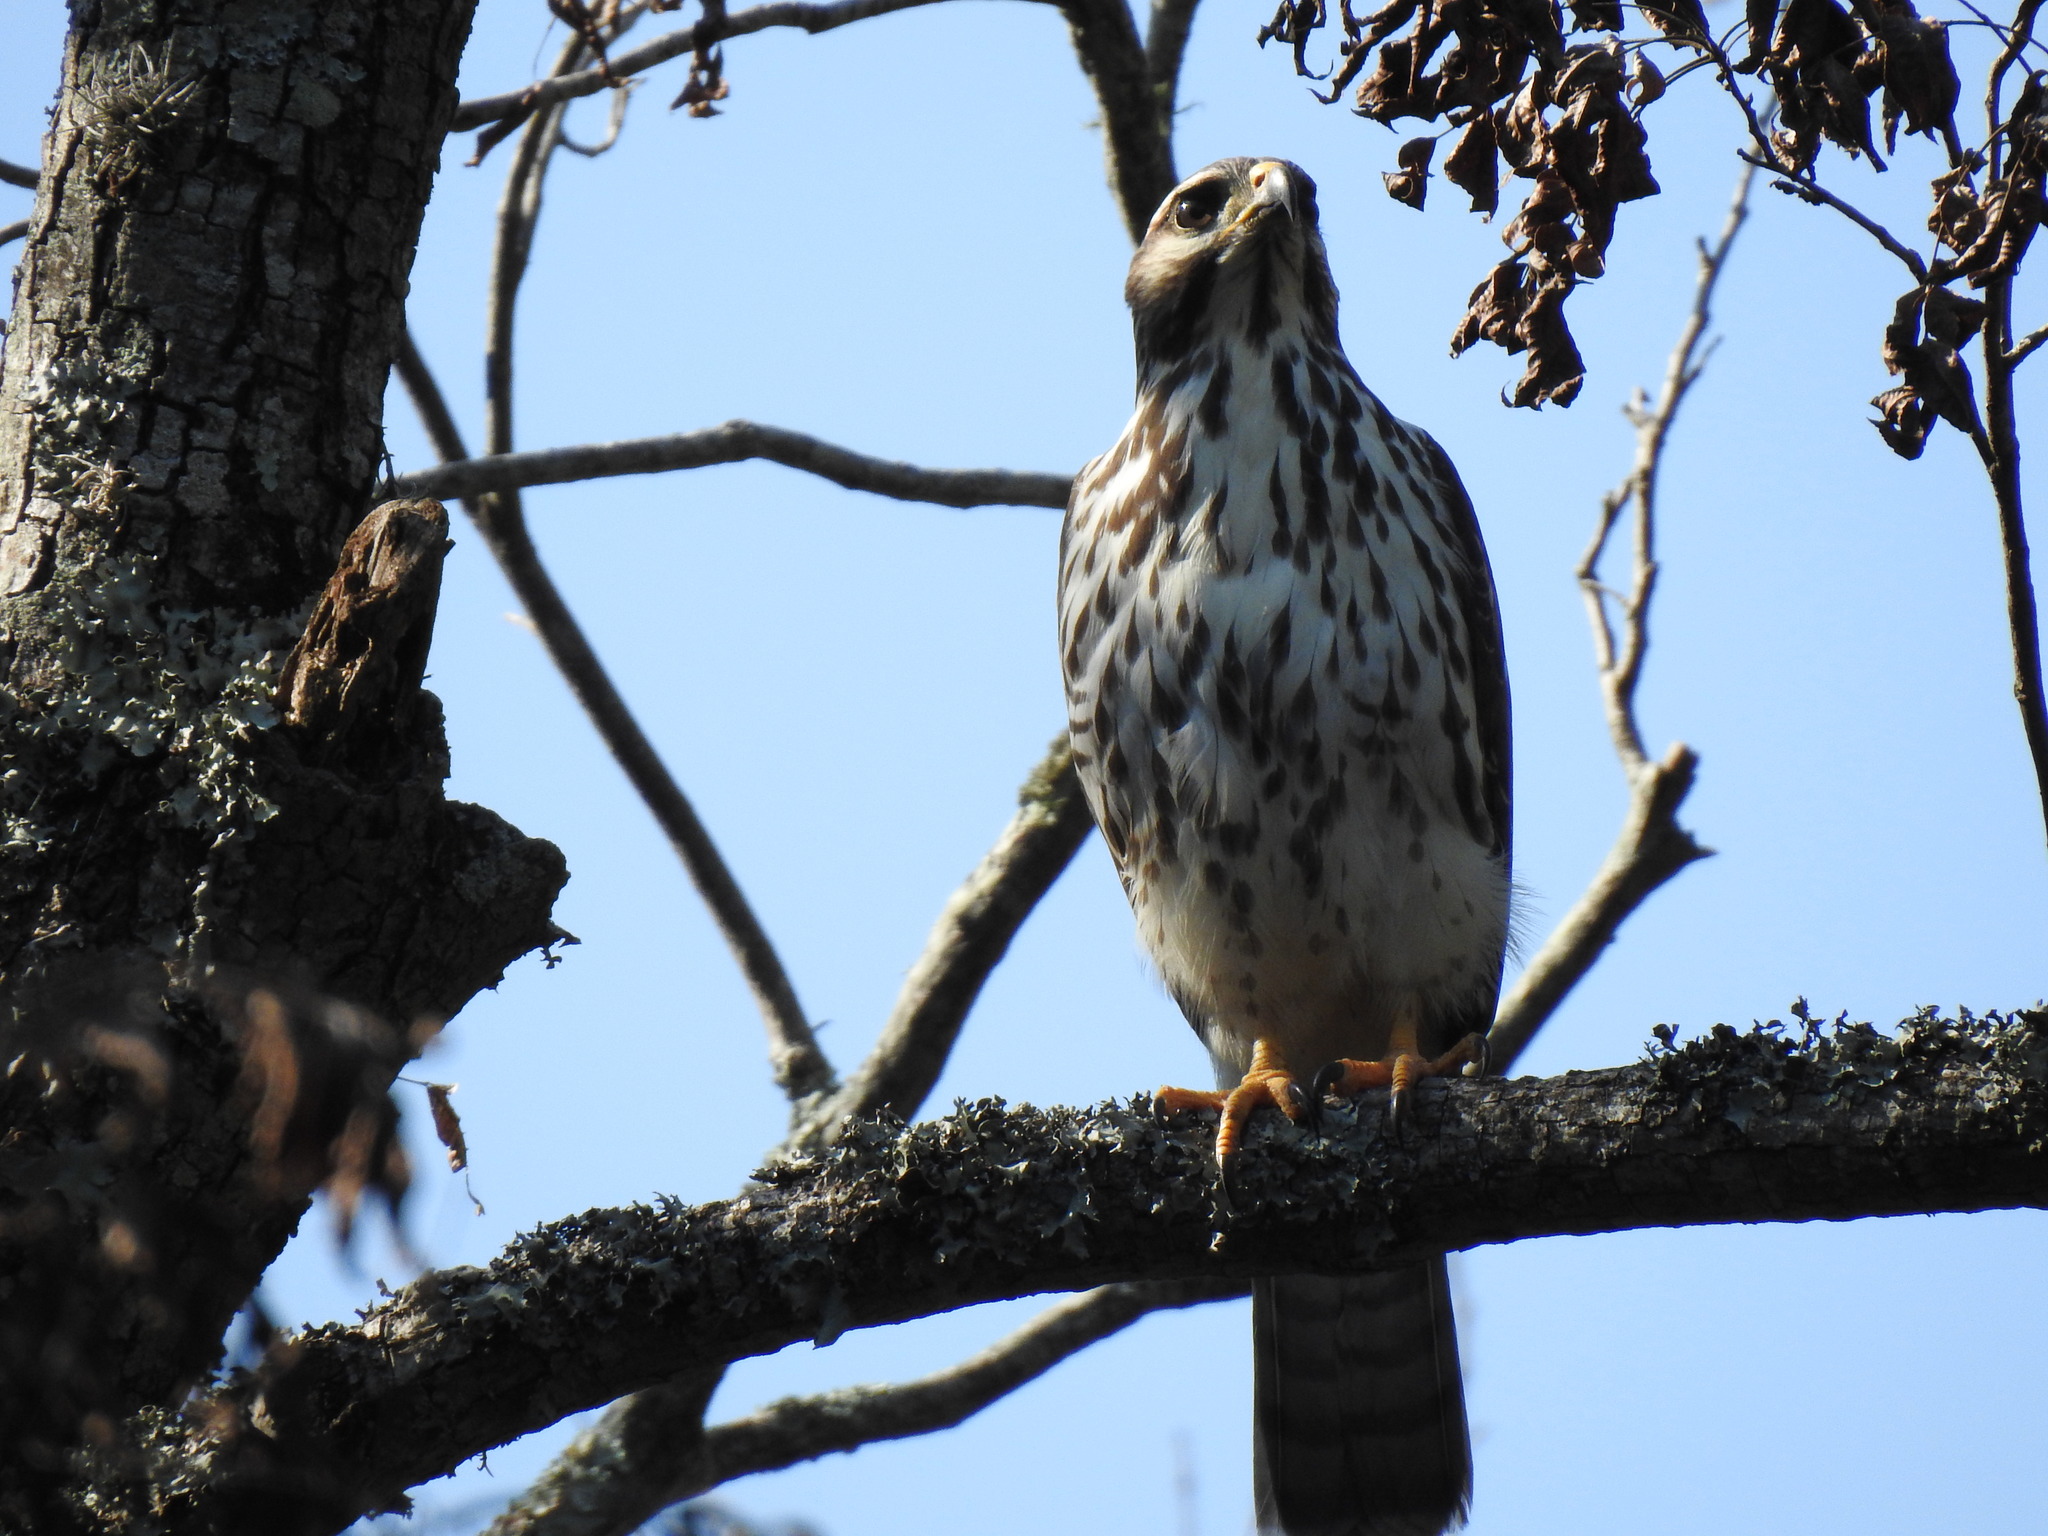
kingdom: Animalia
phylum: Chordata
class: Aves
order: Accipitriformes
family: Accipitridae
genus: Buteo
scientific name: Buteo nitidus
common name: Grey-lined hawk
